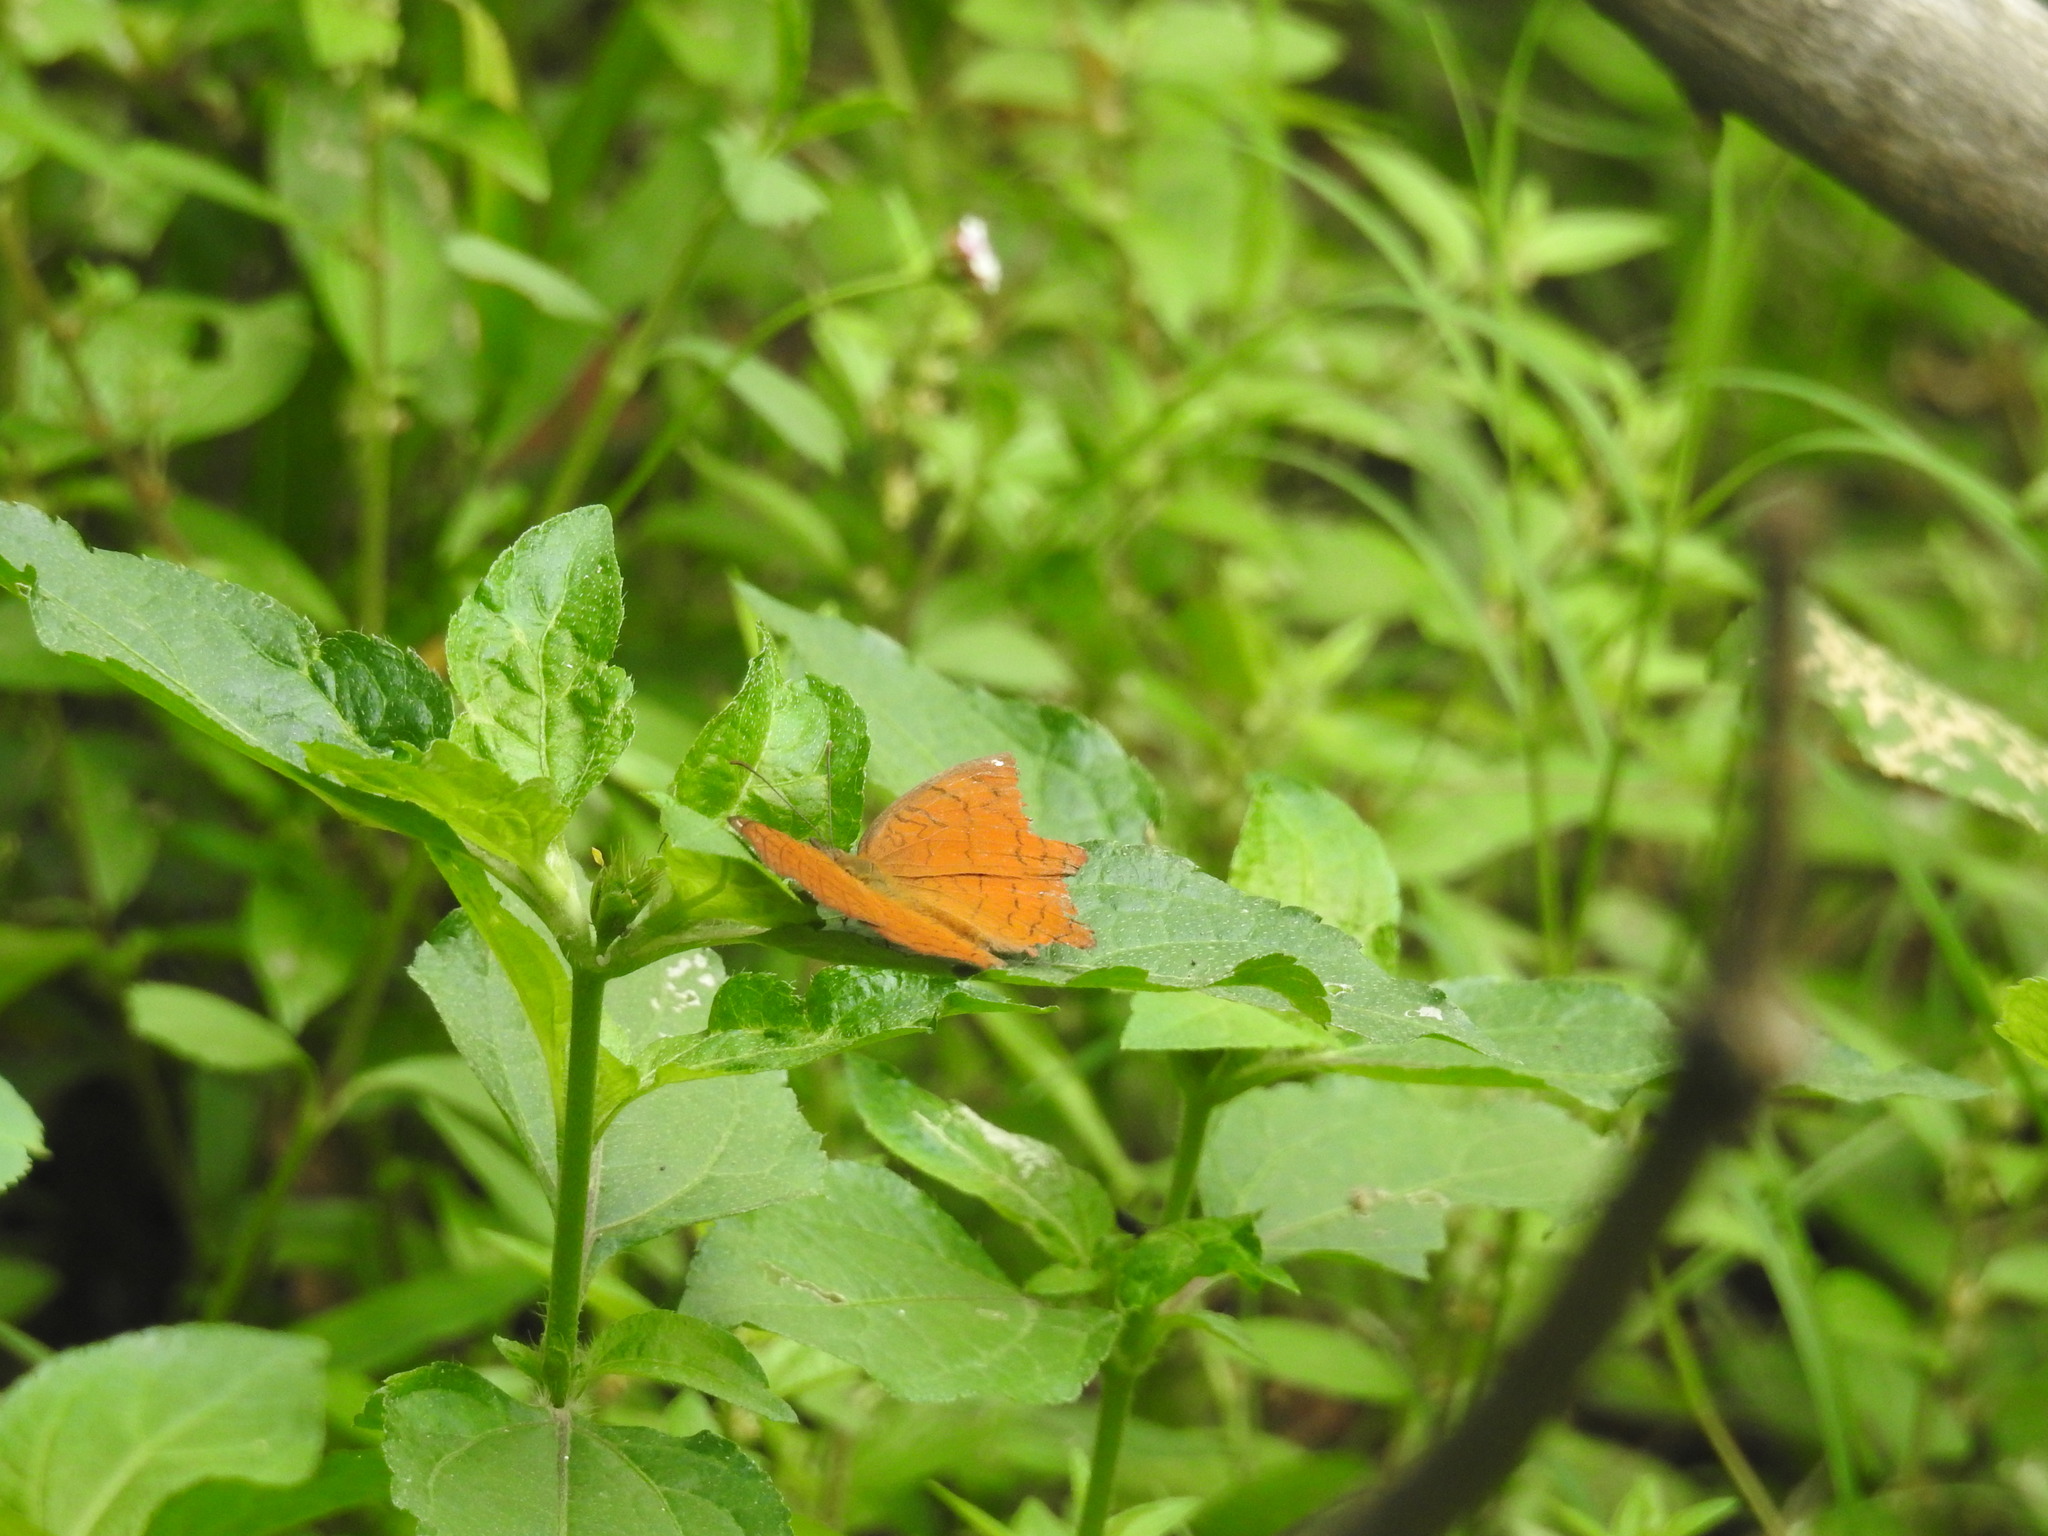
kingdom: Animalia
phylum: Arthropoda
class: Insecta
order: Lepidoptera
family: Nymphalidae
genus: Ariadne
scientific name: Ariadne ariadne
